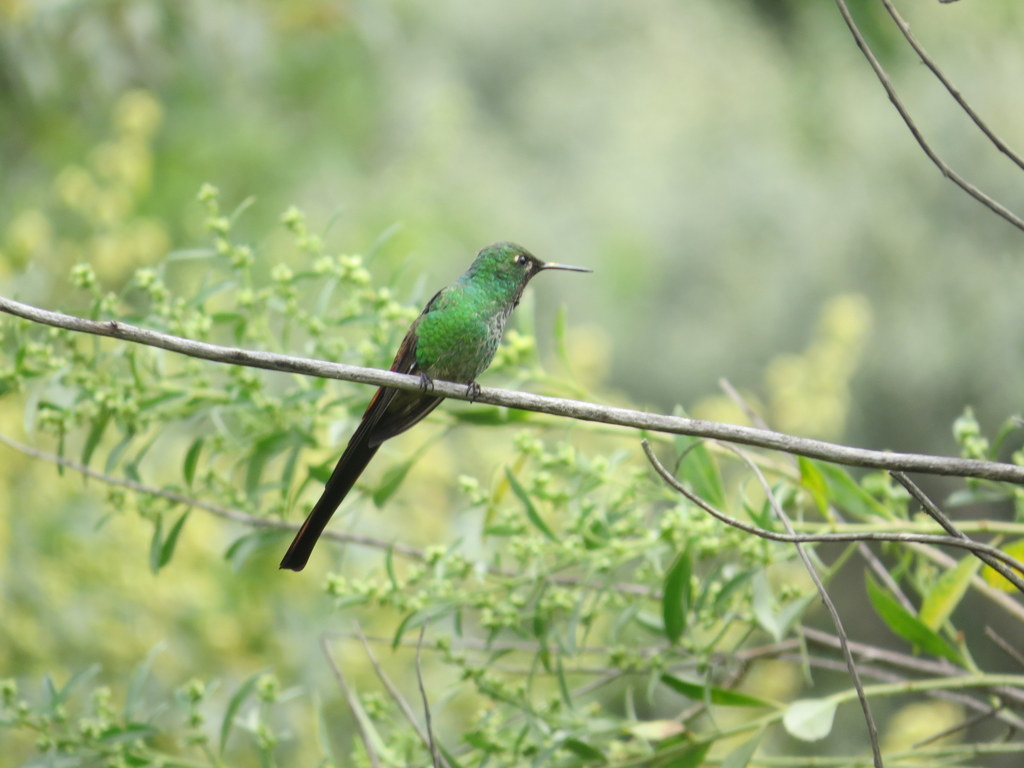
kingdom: Animalia
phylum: Chordata
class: Aves
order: Apodiformes
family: Trochilidae
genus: Sappho
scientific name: Sappho sparganurus
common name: Red-tailed comet
